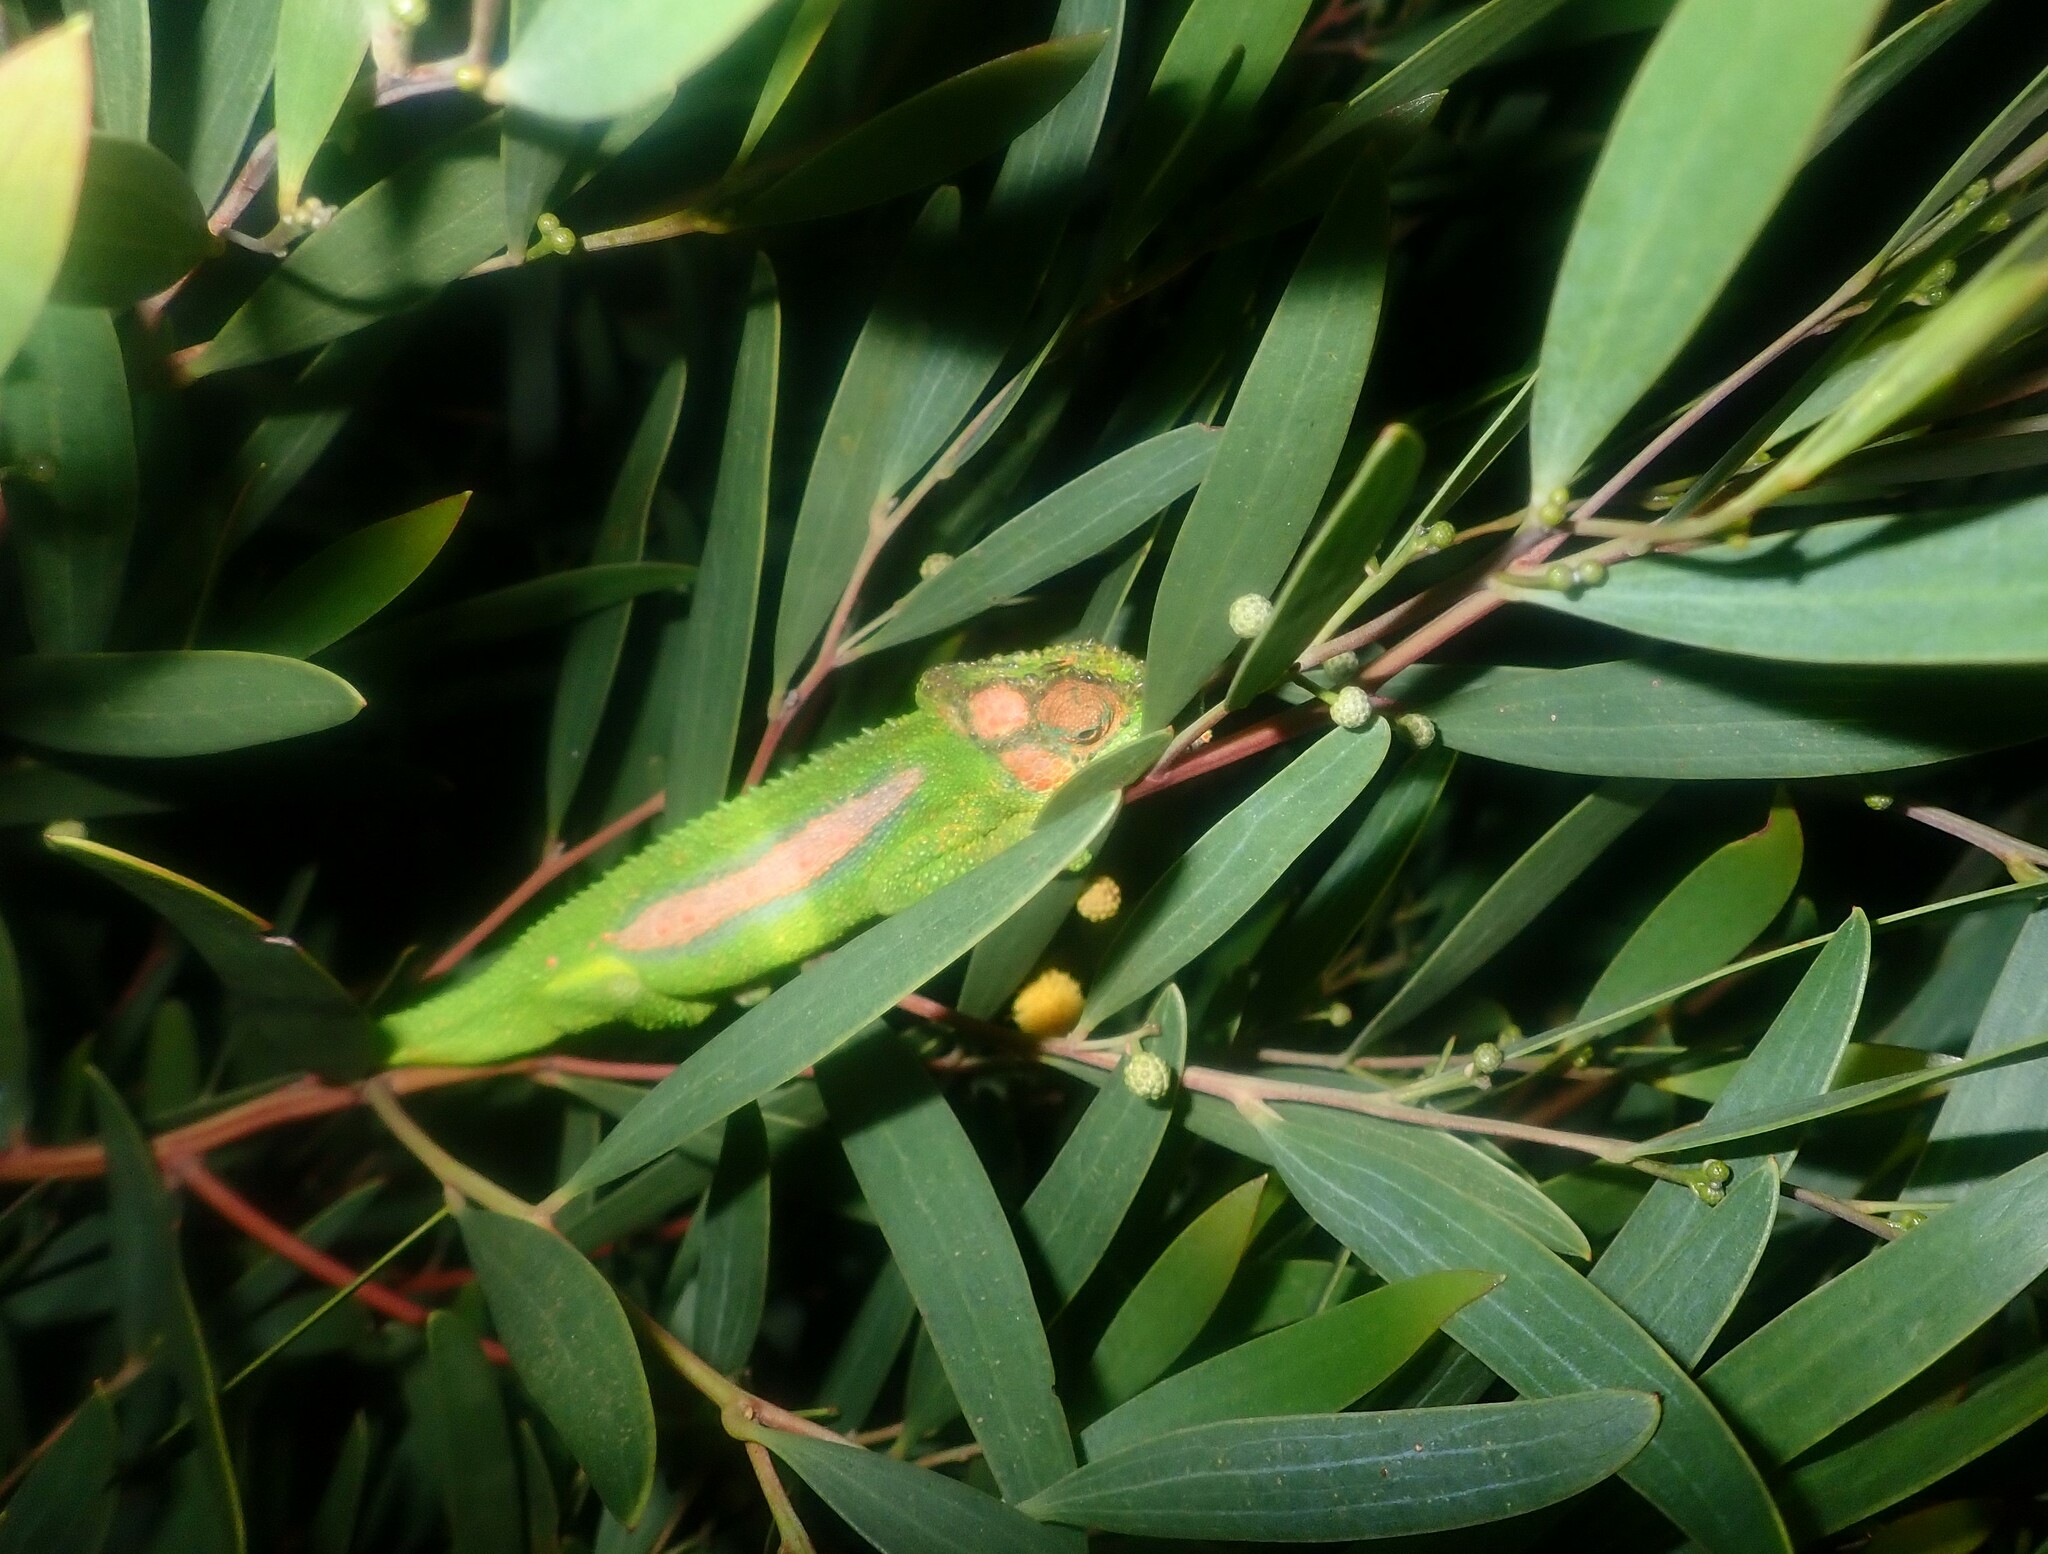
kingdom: Animalia
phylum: Chordata
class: Squamata
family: Chamaeleonidae
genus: Bradypodion
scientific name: Bradypodion pumilum
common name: Cape dwarf chameleon
